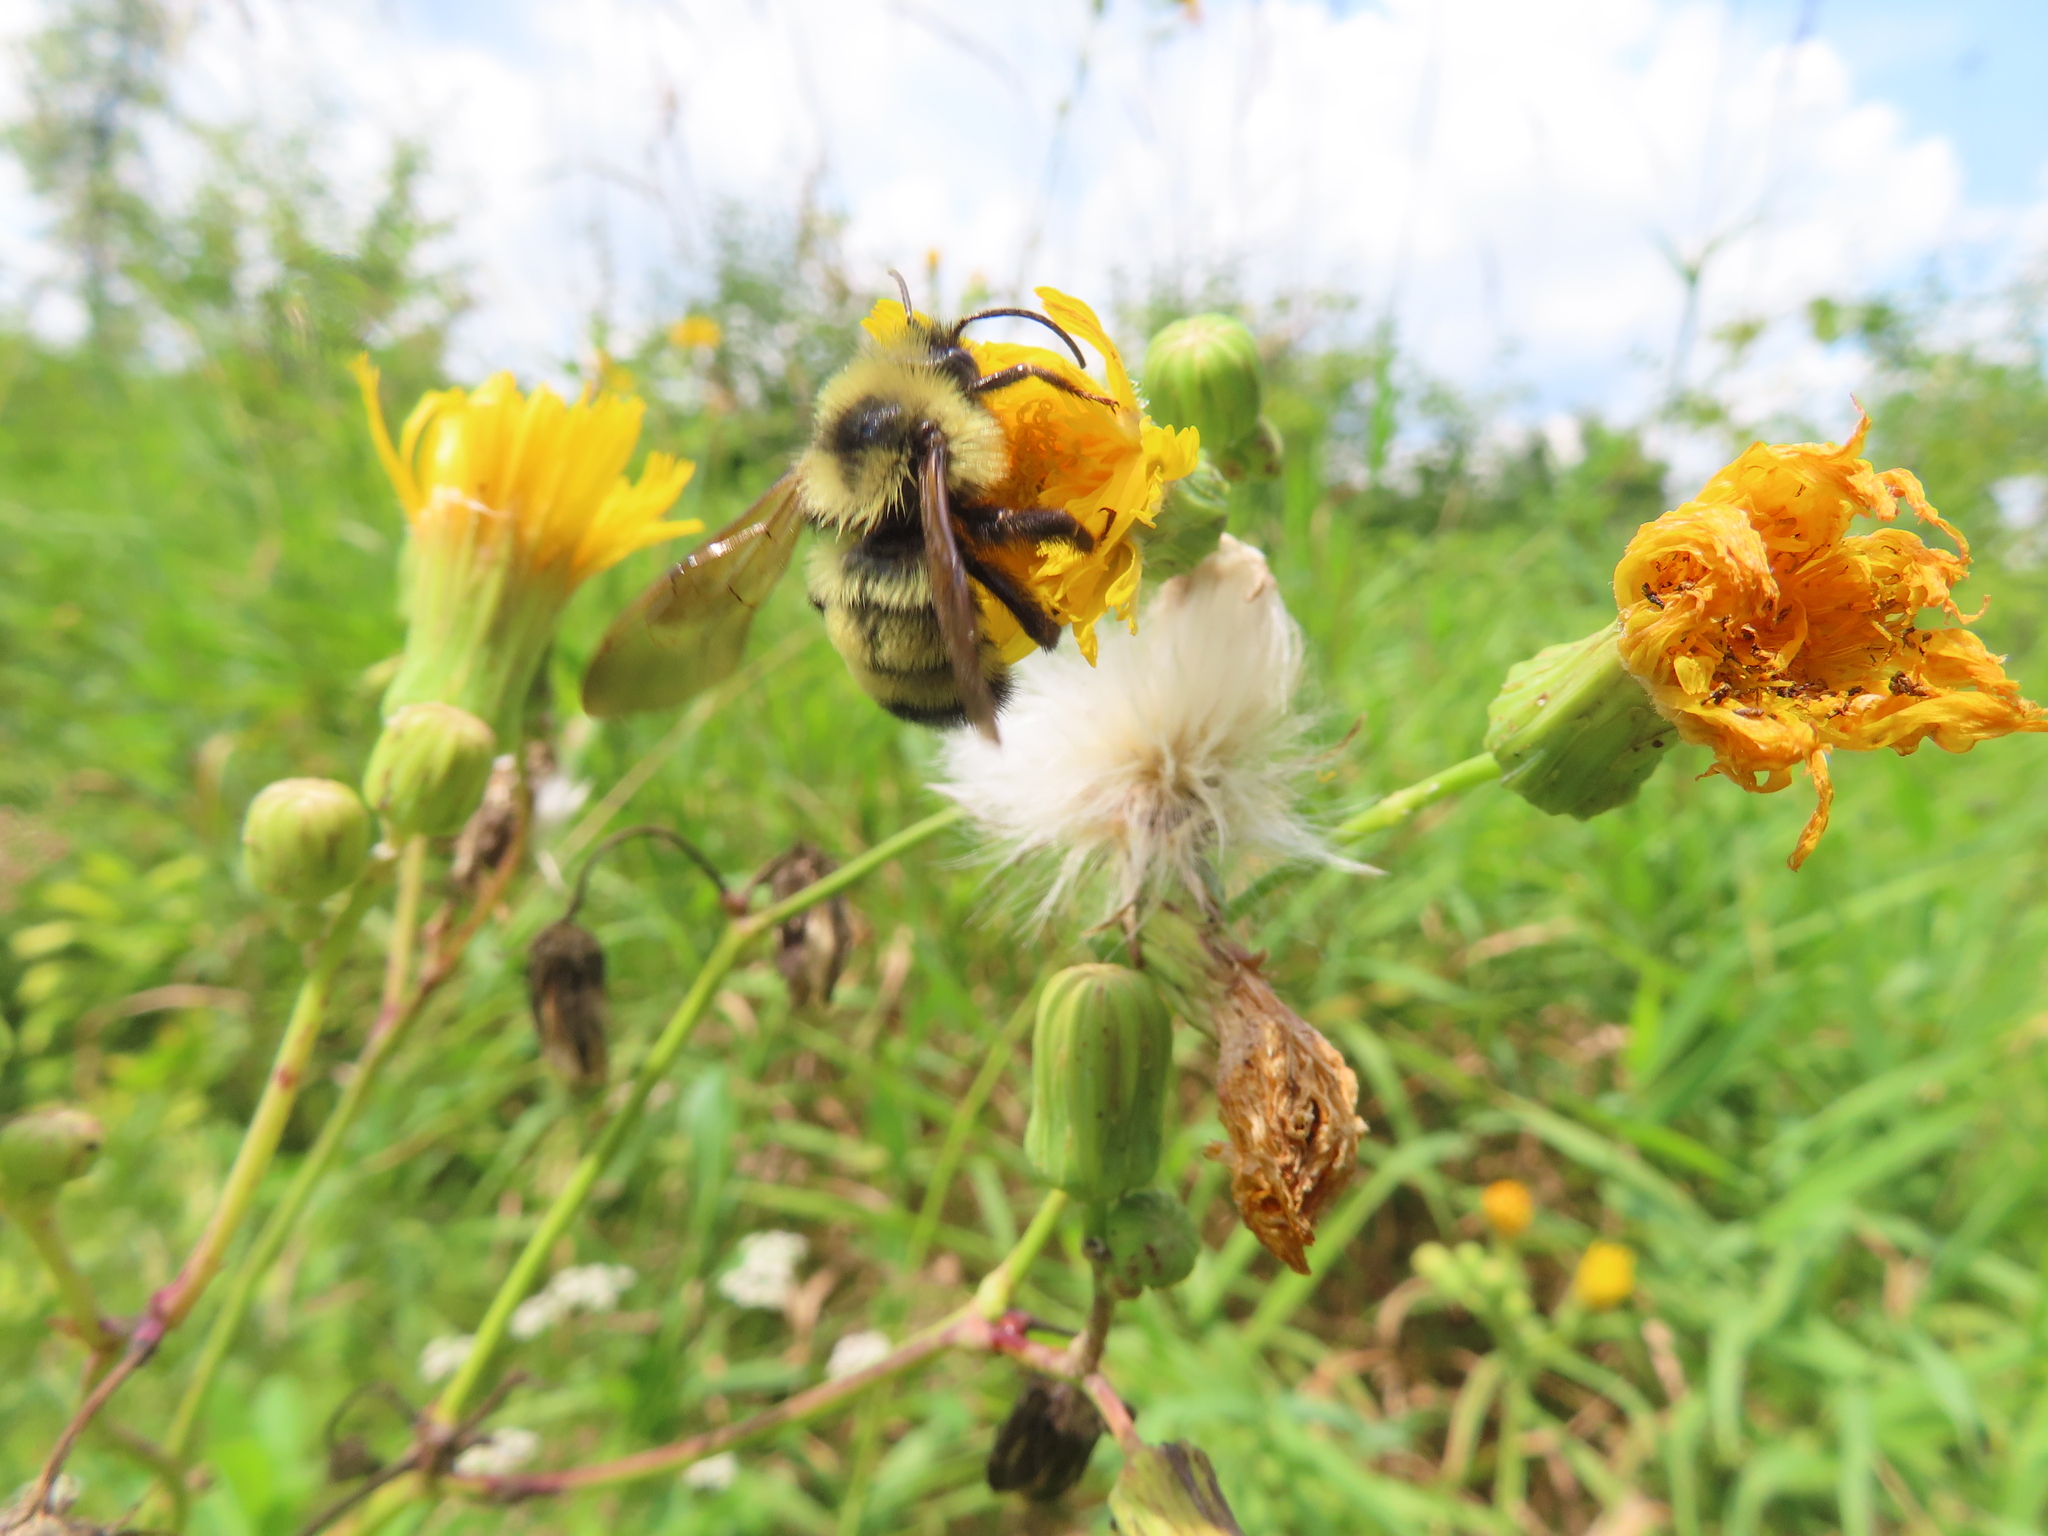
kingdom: Animalia
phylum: Arthropoda
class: Insecta
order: Hymenoptera
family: Apidae
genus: Bombus
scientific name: Bombus citrinus
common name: Lemon cuckoo bumble bee
